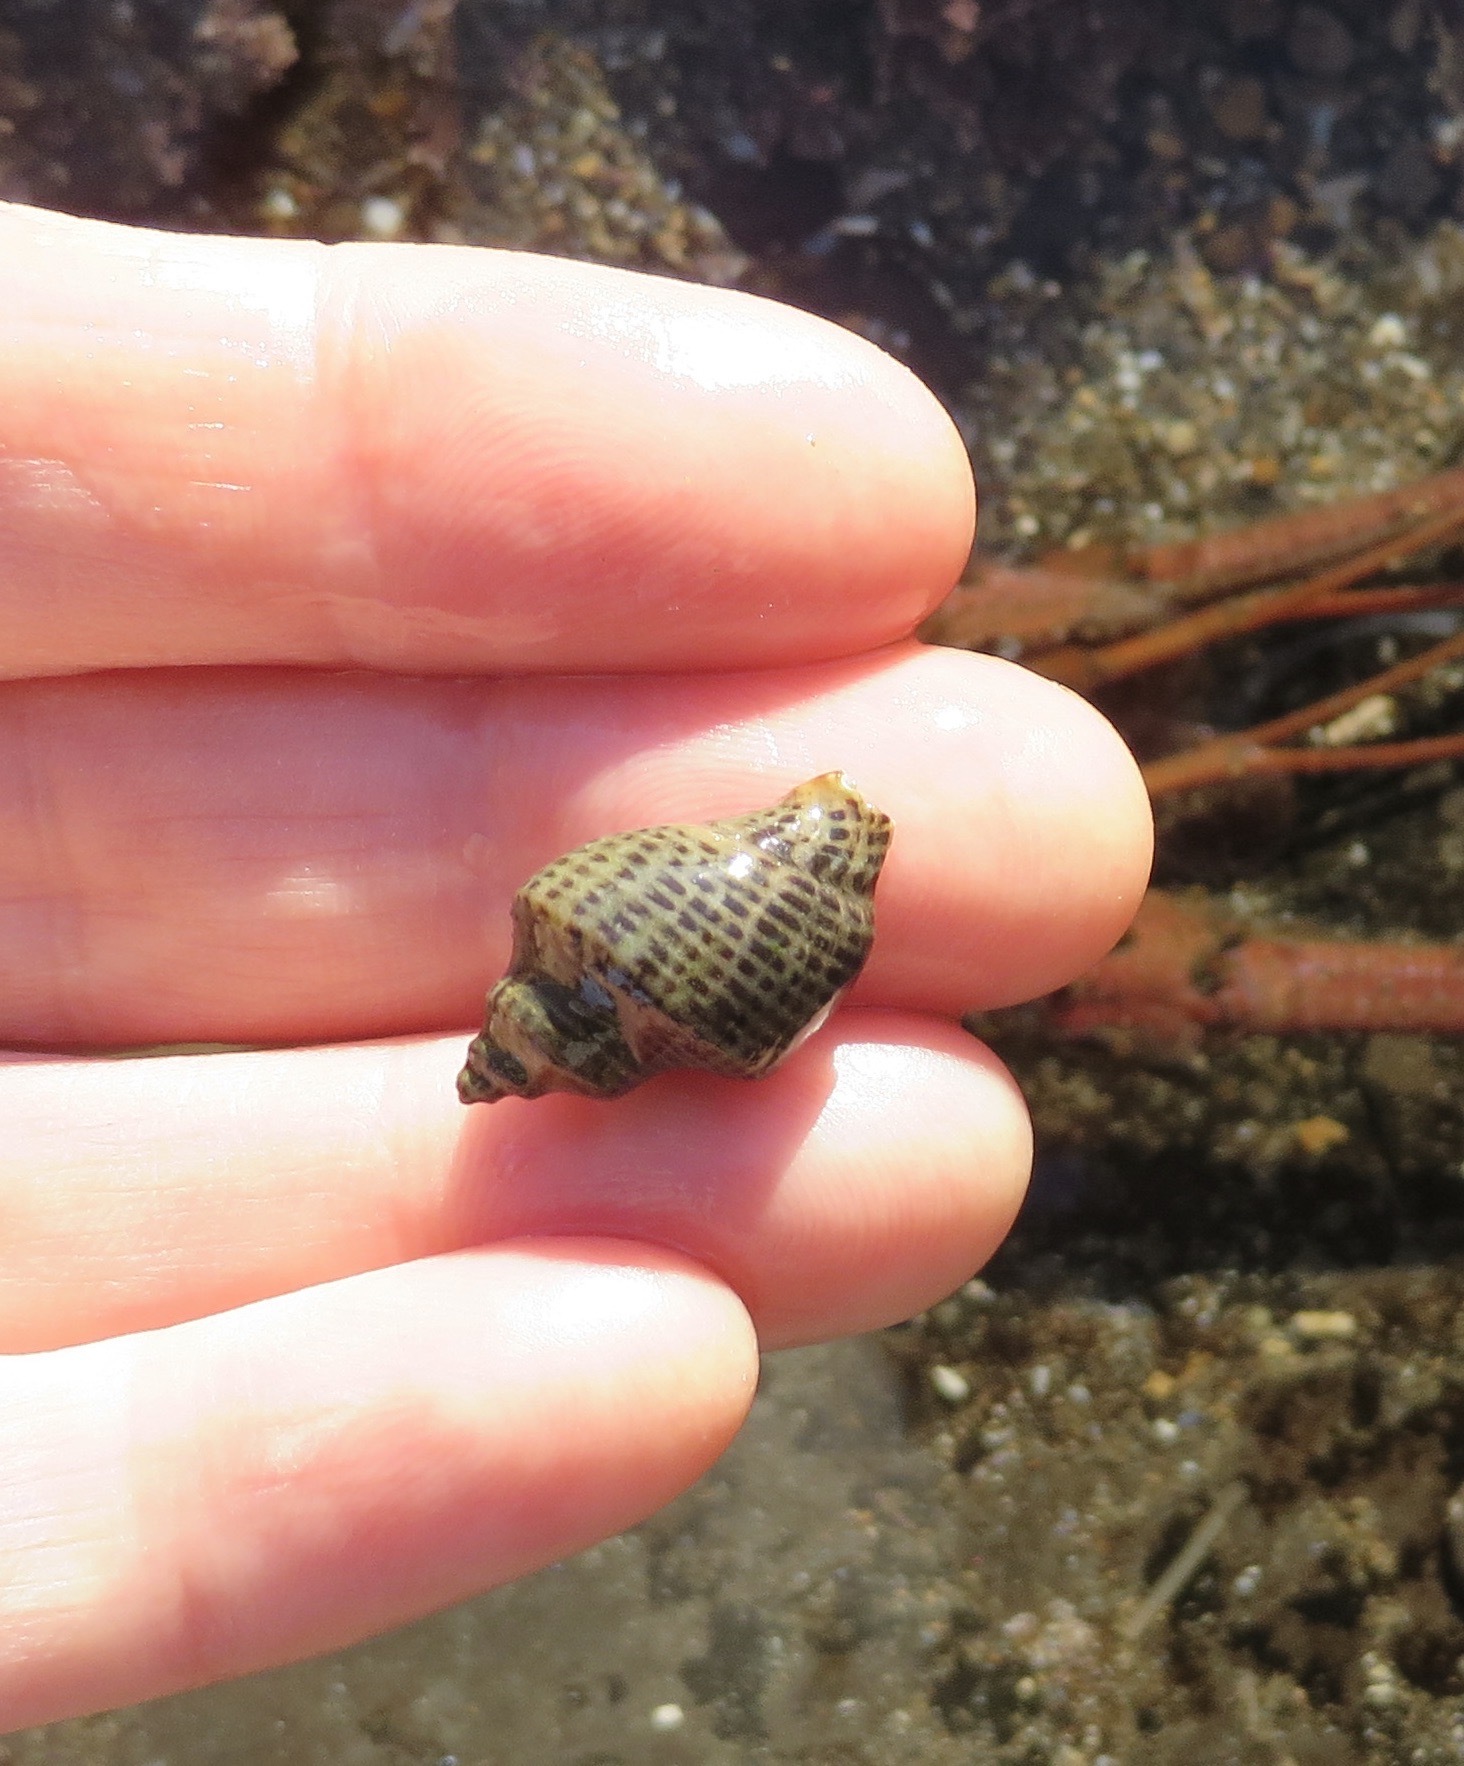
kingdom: Animalia
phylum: Mollusca
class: Gastropoda
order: Neogastropoda
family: Muricidae
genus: Acanthinucella
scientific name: Acanthinucella spirata
